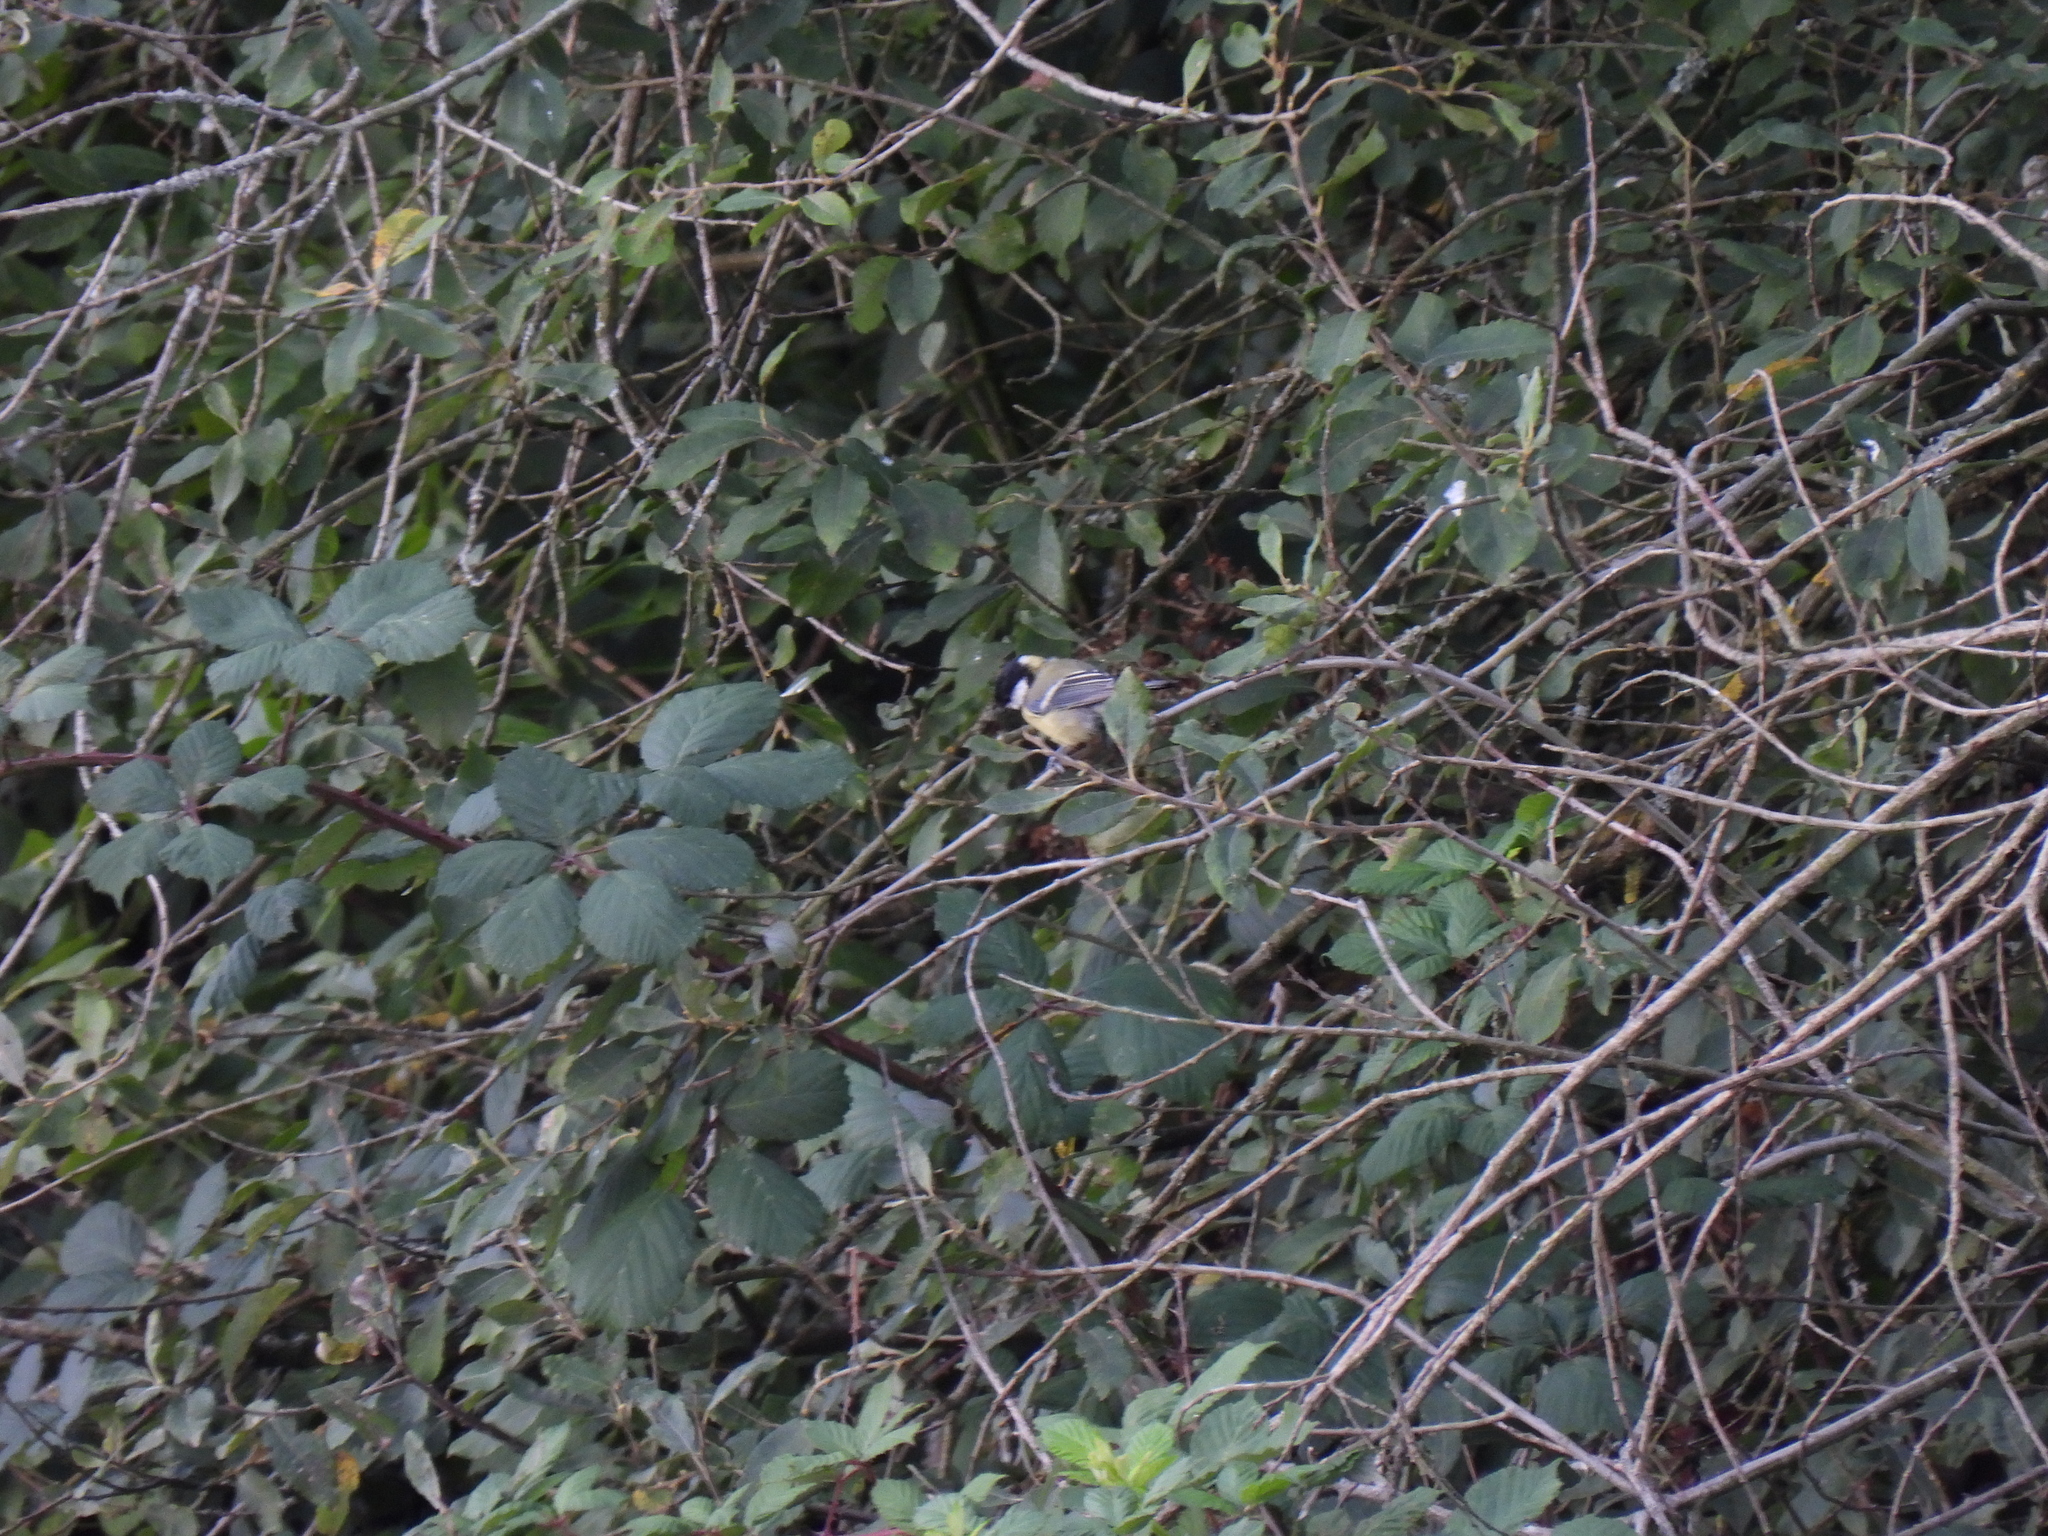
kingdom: Animalia
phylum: Chordata
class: Aves
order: Passeriformes
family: Paridae
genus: Parus
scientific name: Parus major
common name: Great tit
